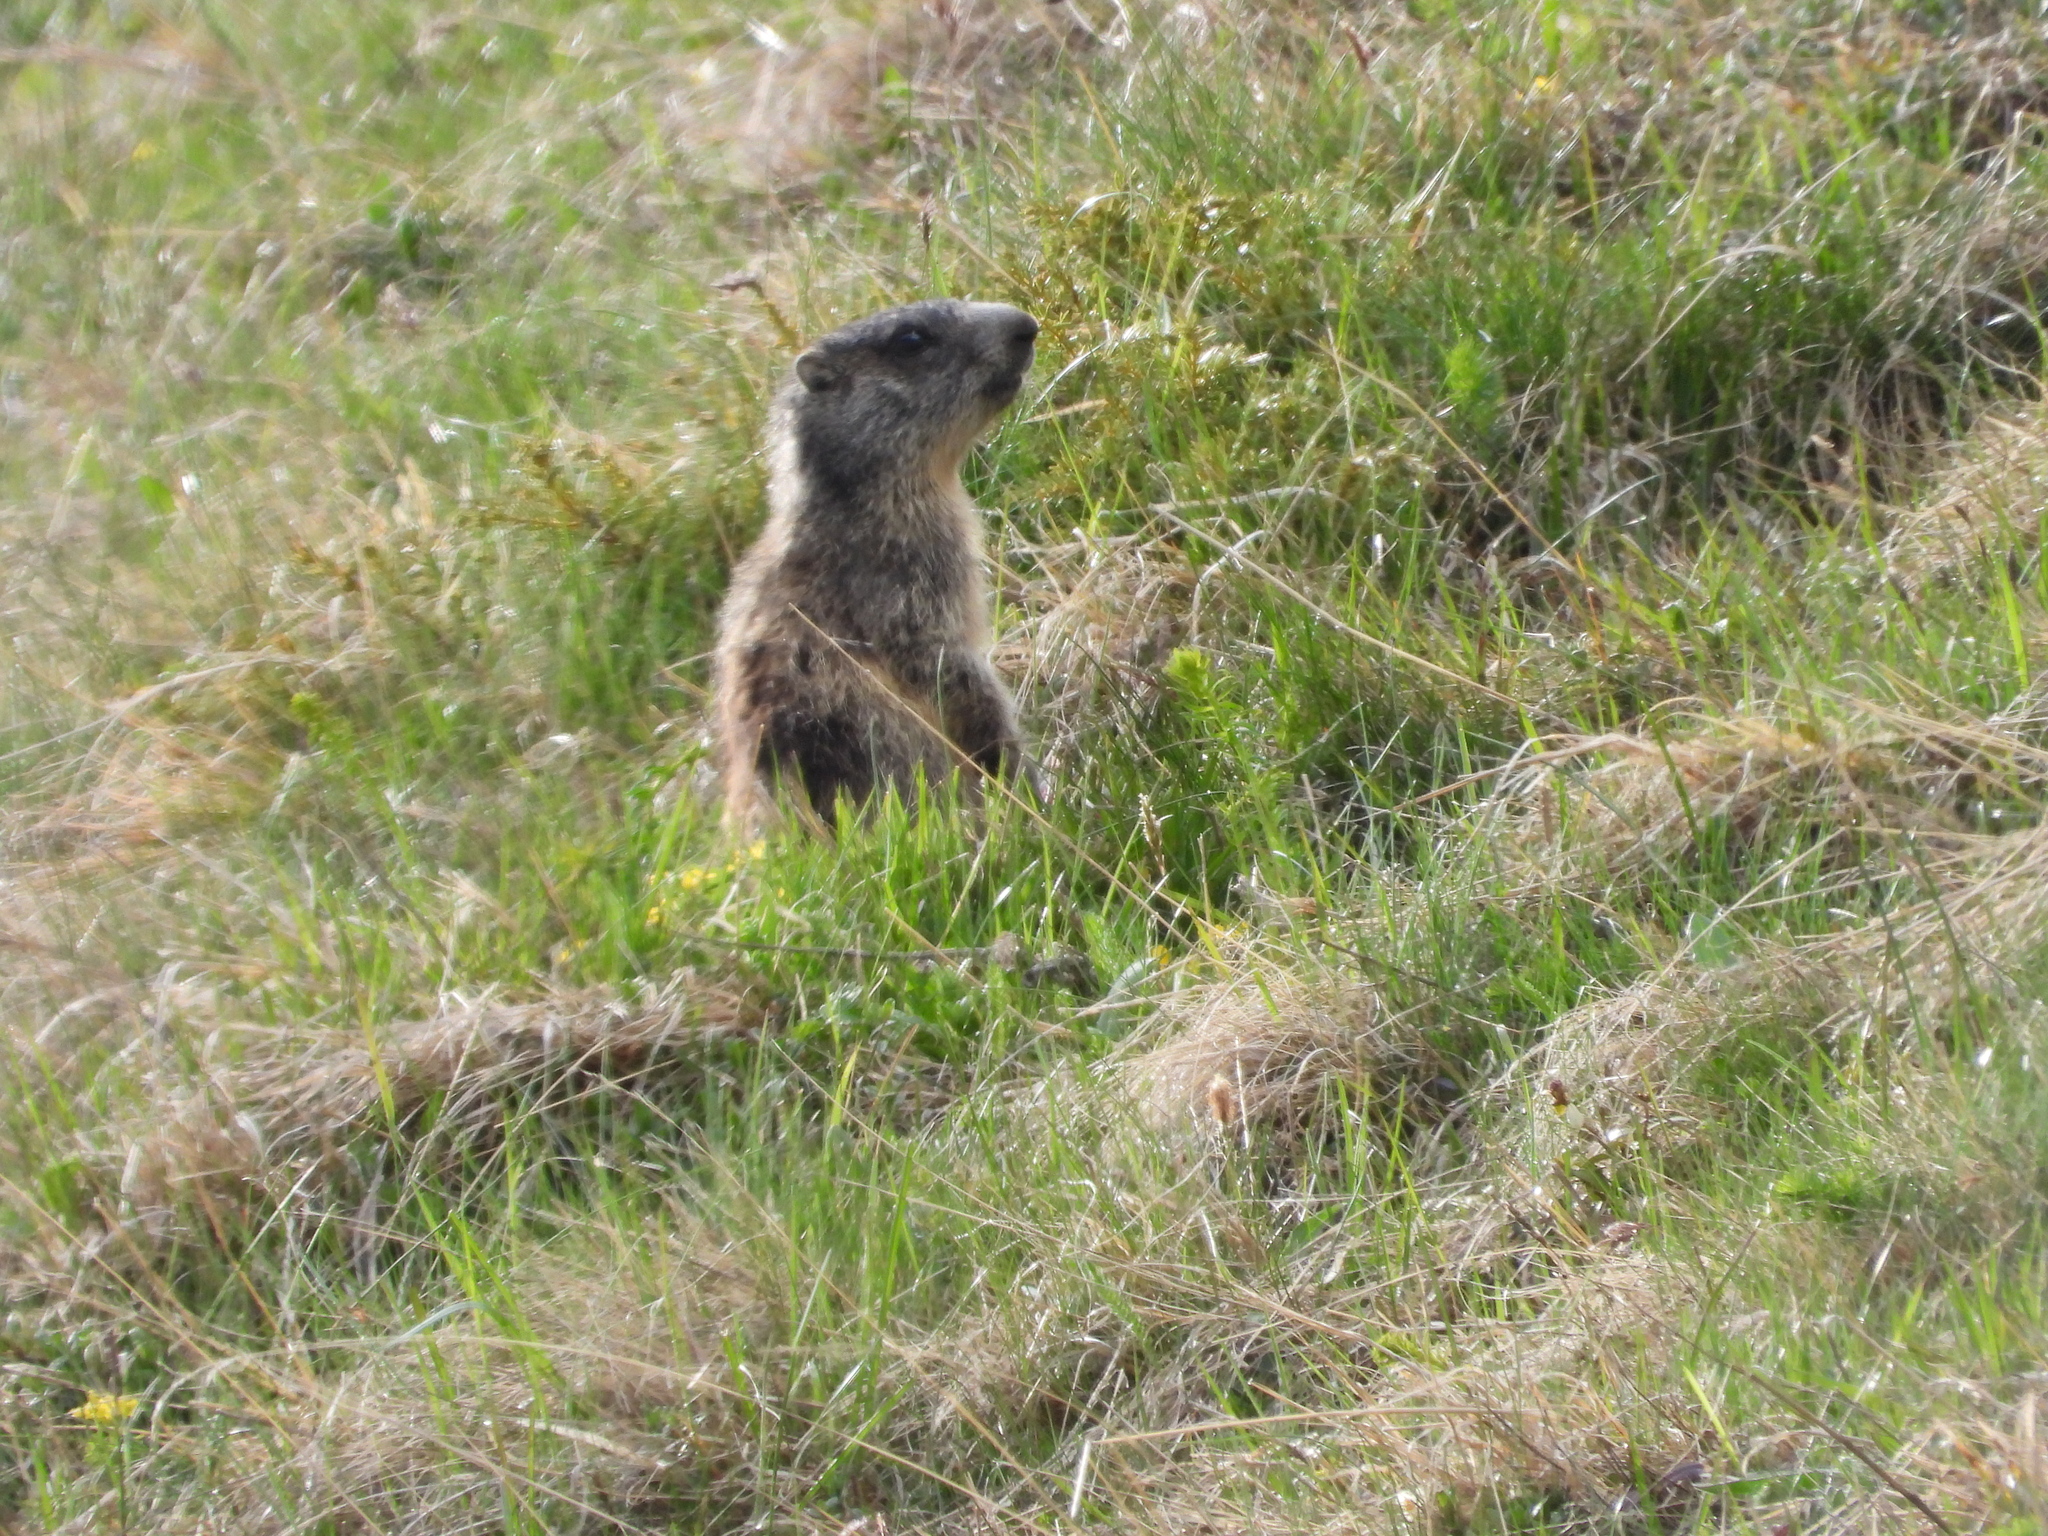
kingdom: Animalia
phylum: Chordata
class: Mammalia
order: Rodentia
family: Sciuridae
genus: Marmota
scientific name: Marmota marmota
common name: Alpine marmot
